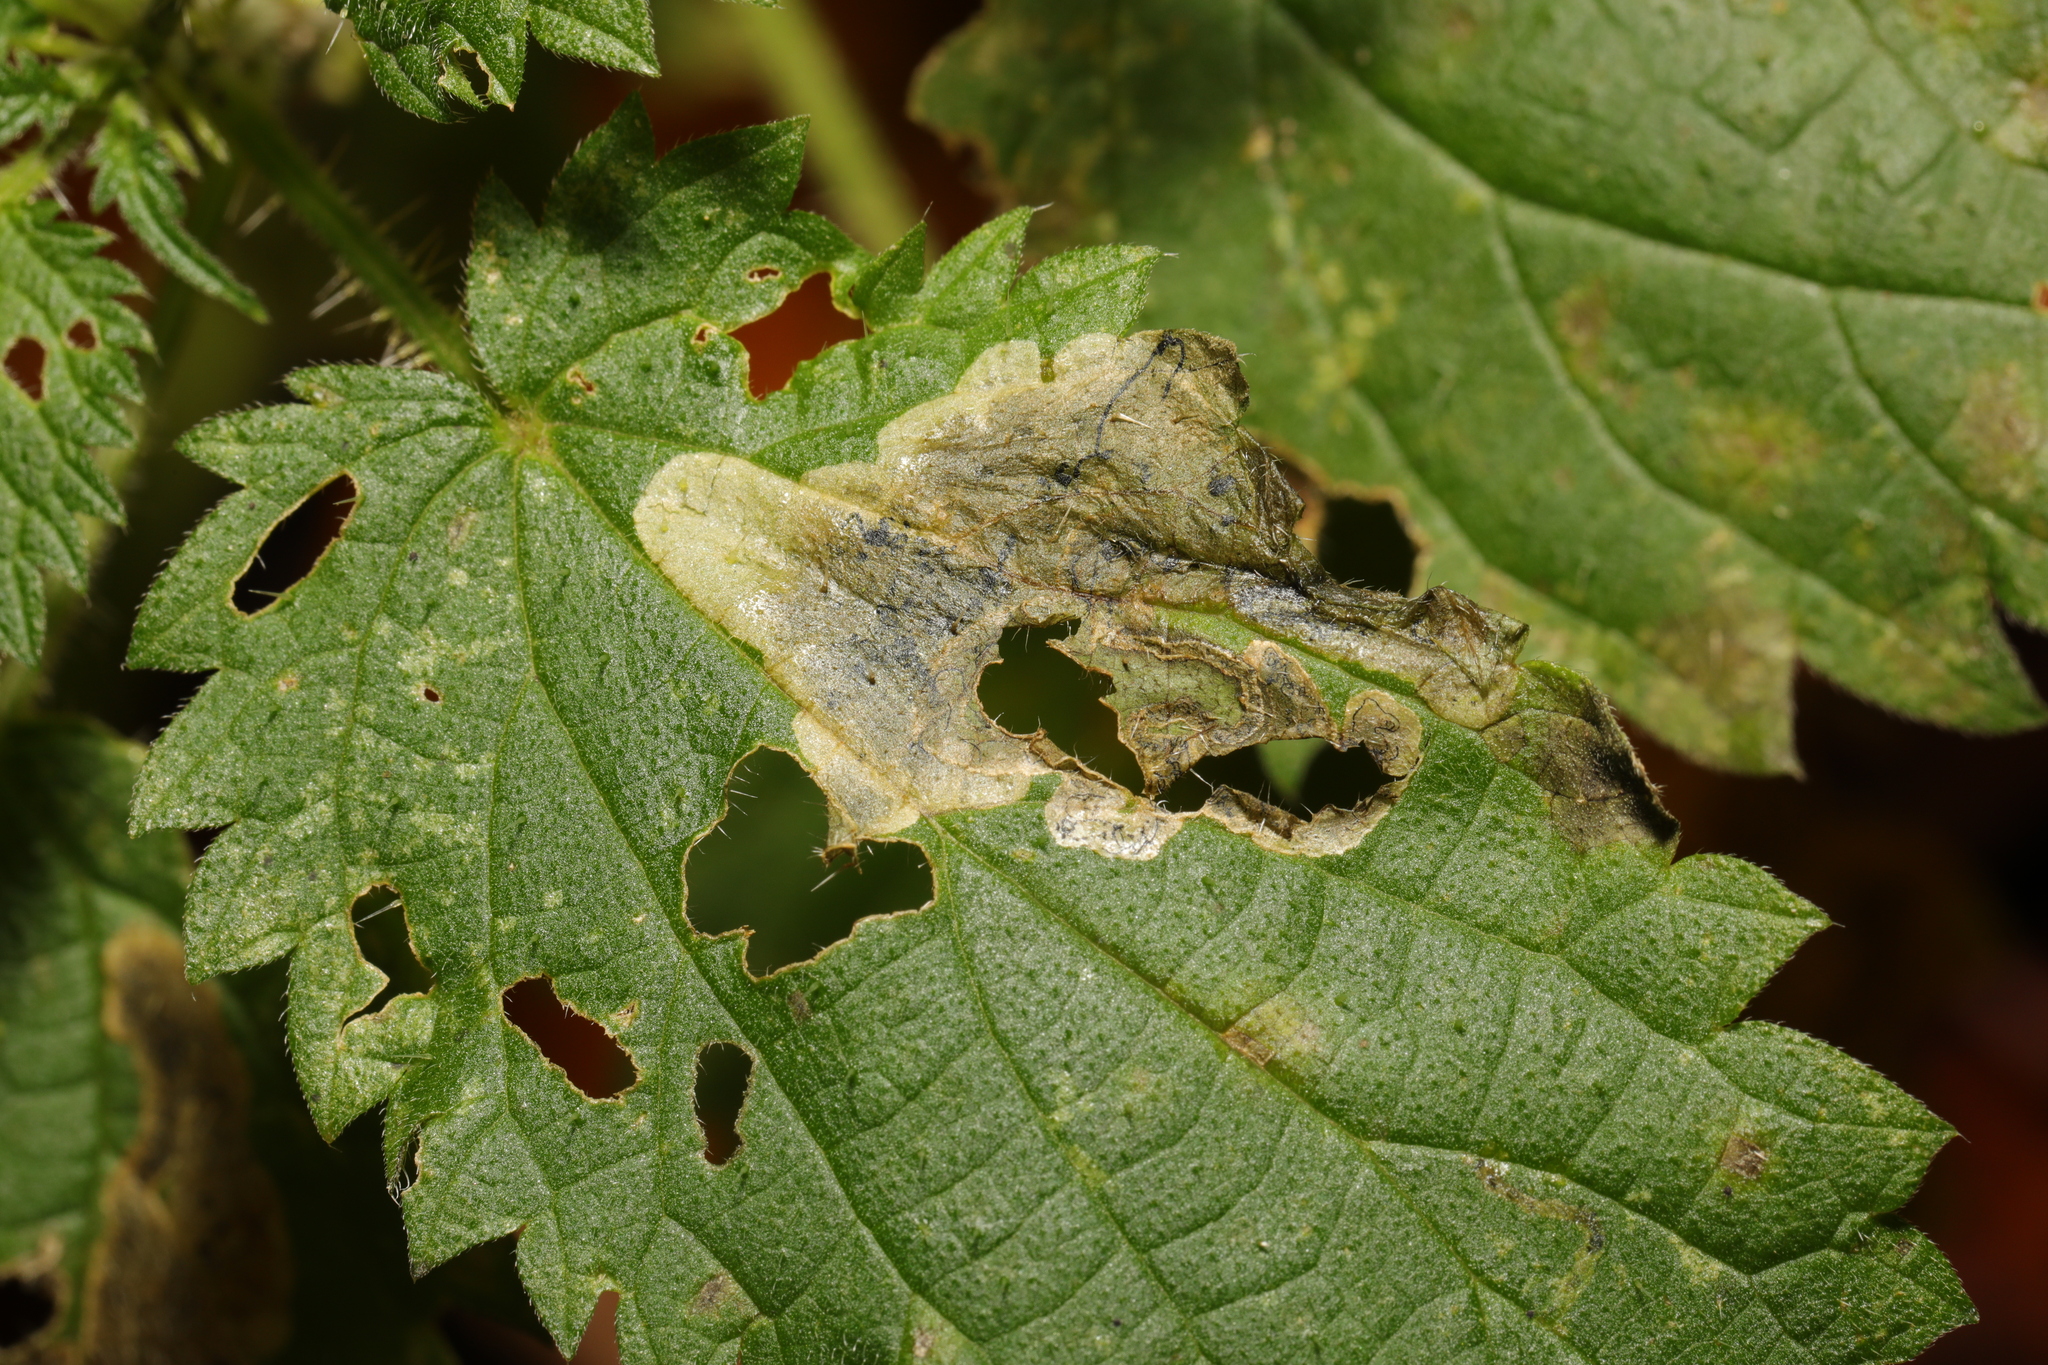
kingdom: Animalia
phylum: Arthropoda
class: Insecta
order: Diptera
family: Agromyzidae
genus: Agromyza
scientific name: Agromyza anthracina
